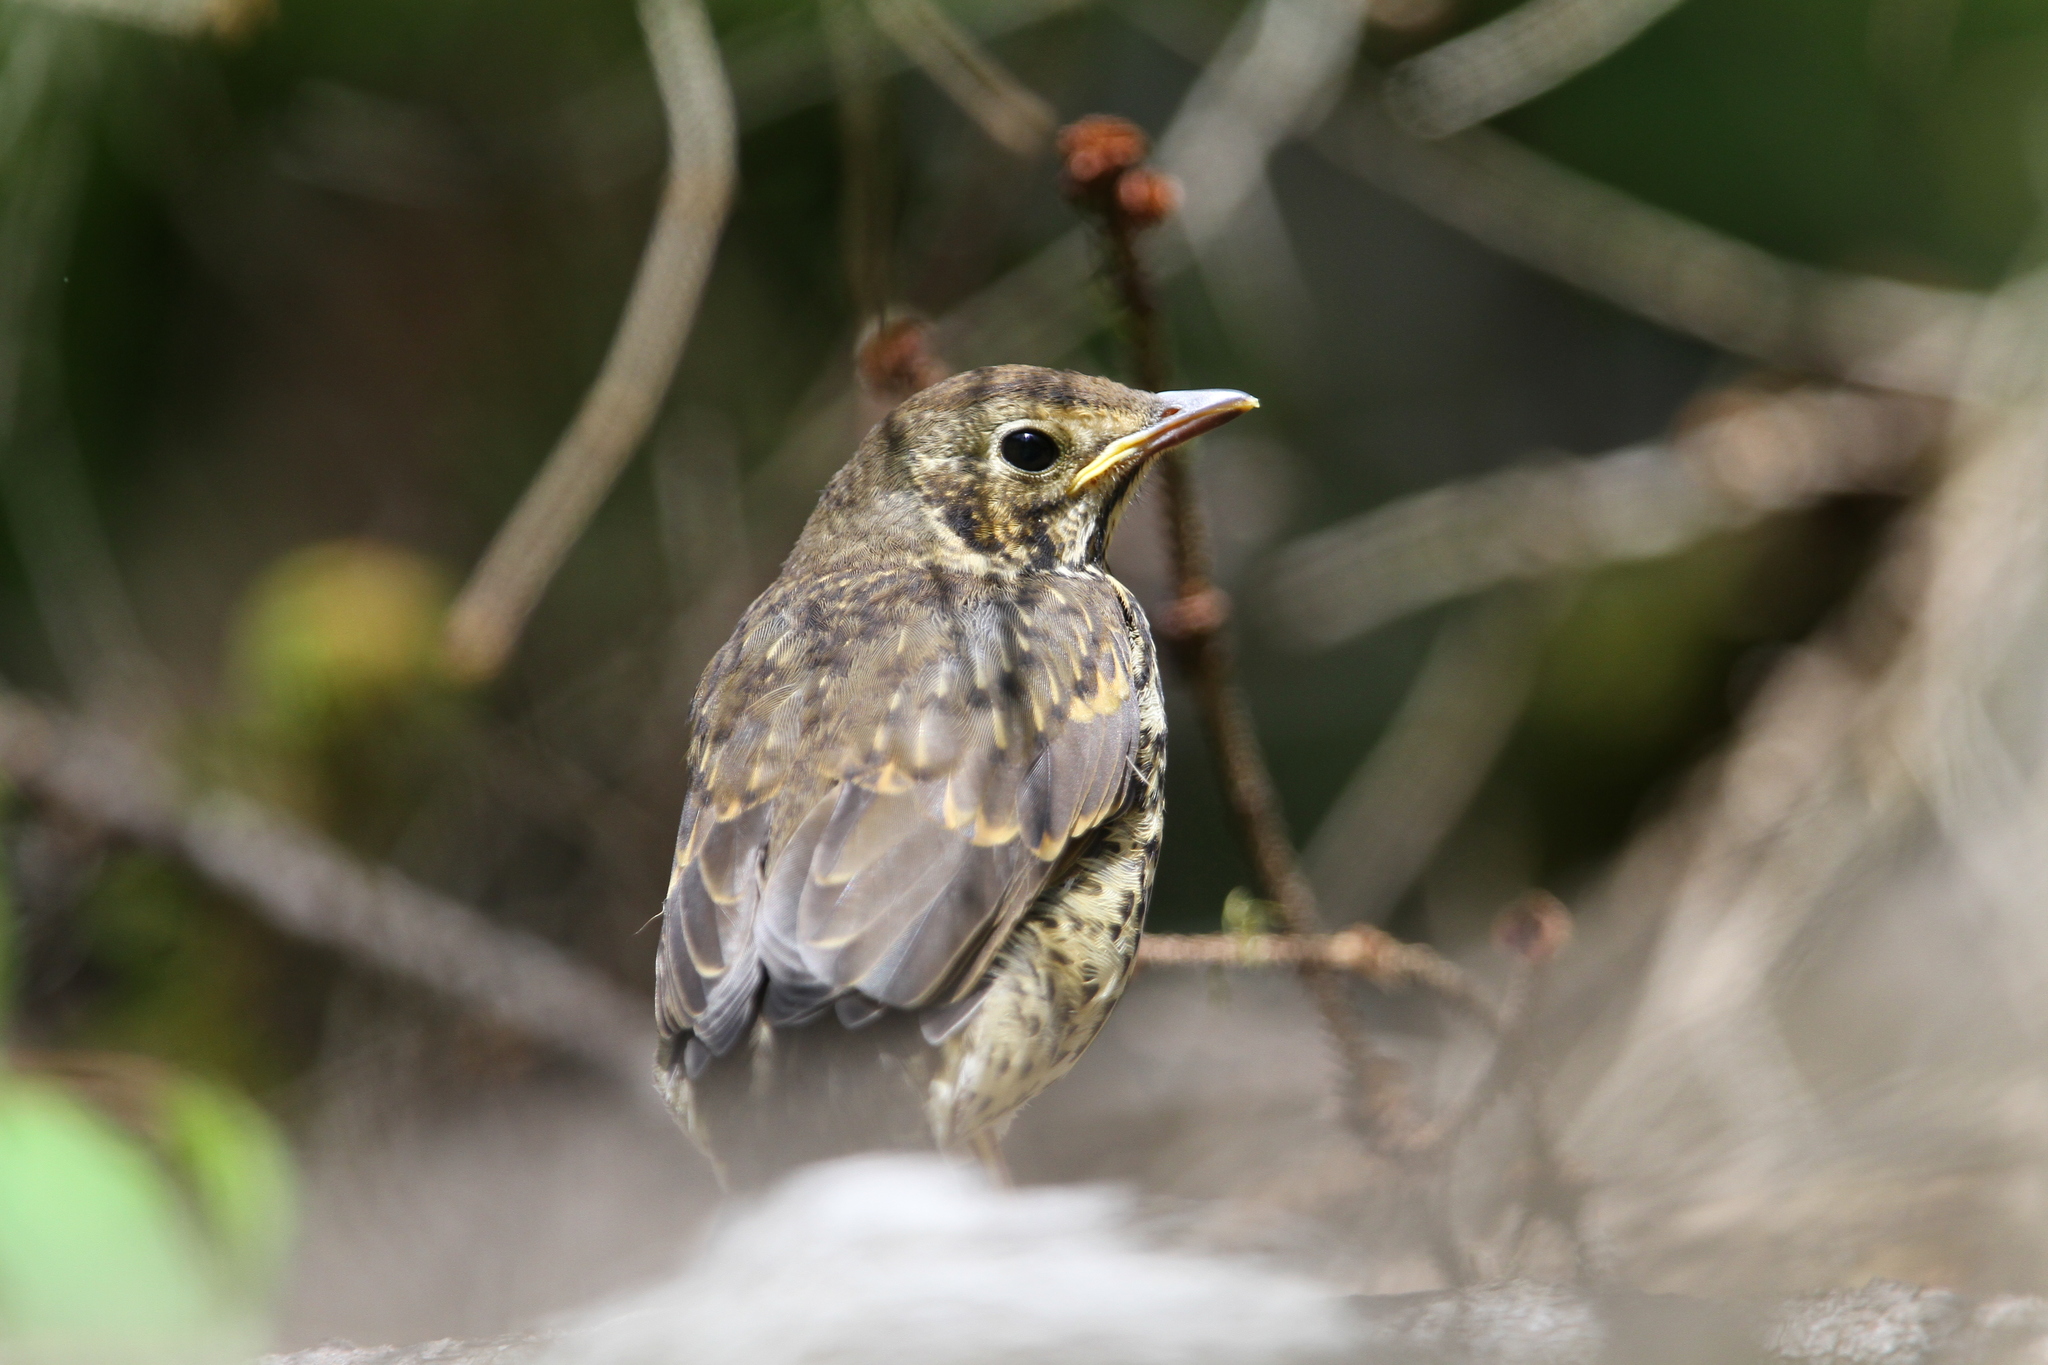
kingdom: Animalia
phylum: Chordata
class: Aves
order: Passeriformes
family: Turdidae
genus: Turdus
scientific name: Turdus philomelos
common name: Song thrush
